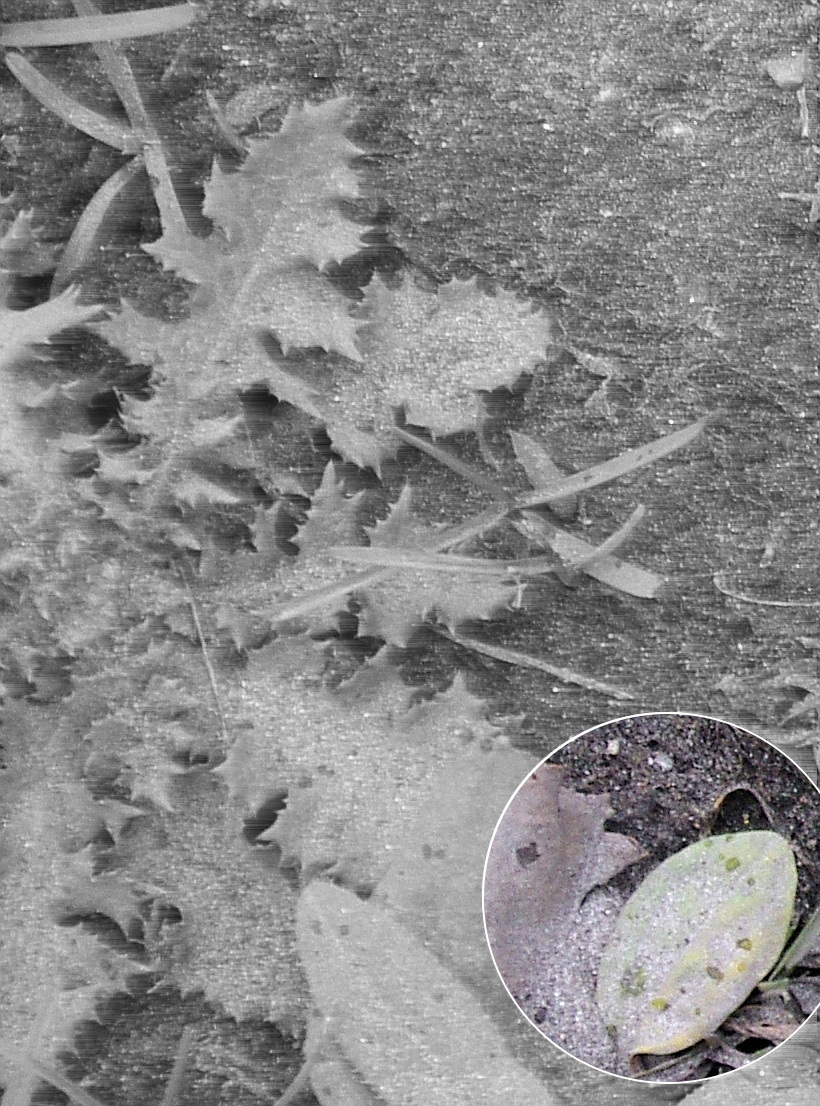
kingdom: Plantae
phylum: Tracheophyta
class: Magnoliopsida
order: Lamiales
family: Plantaginaceae
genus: Plantago
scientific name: Plantago major
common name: Common plantain
